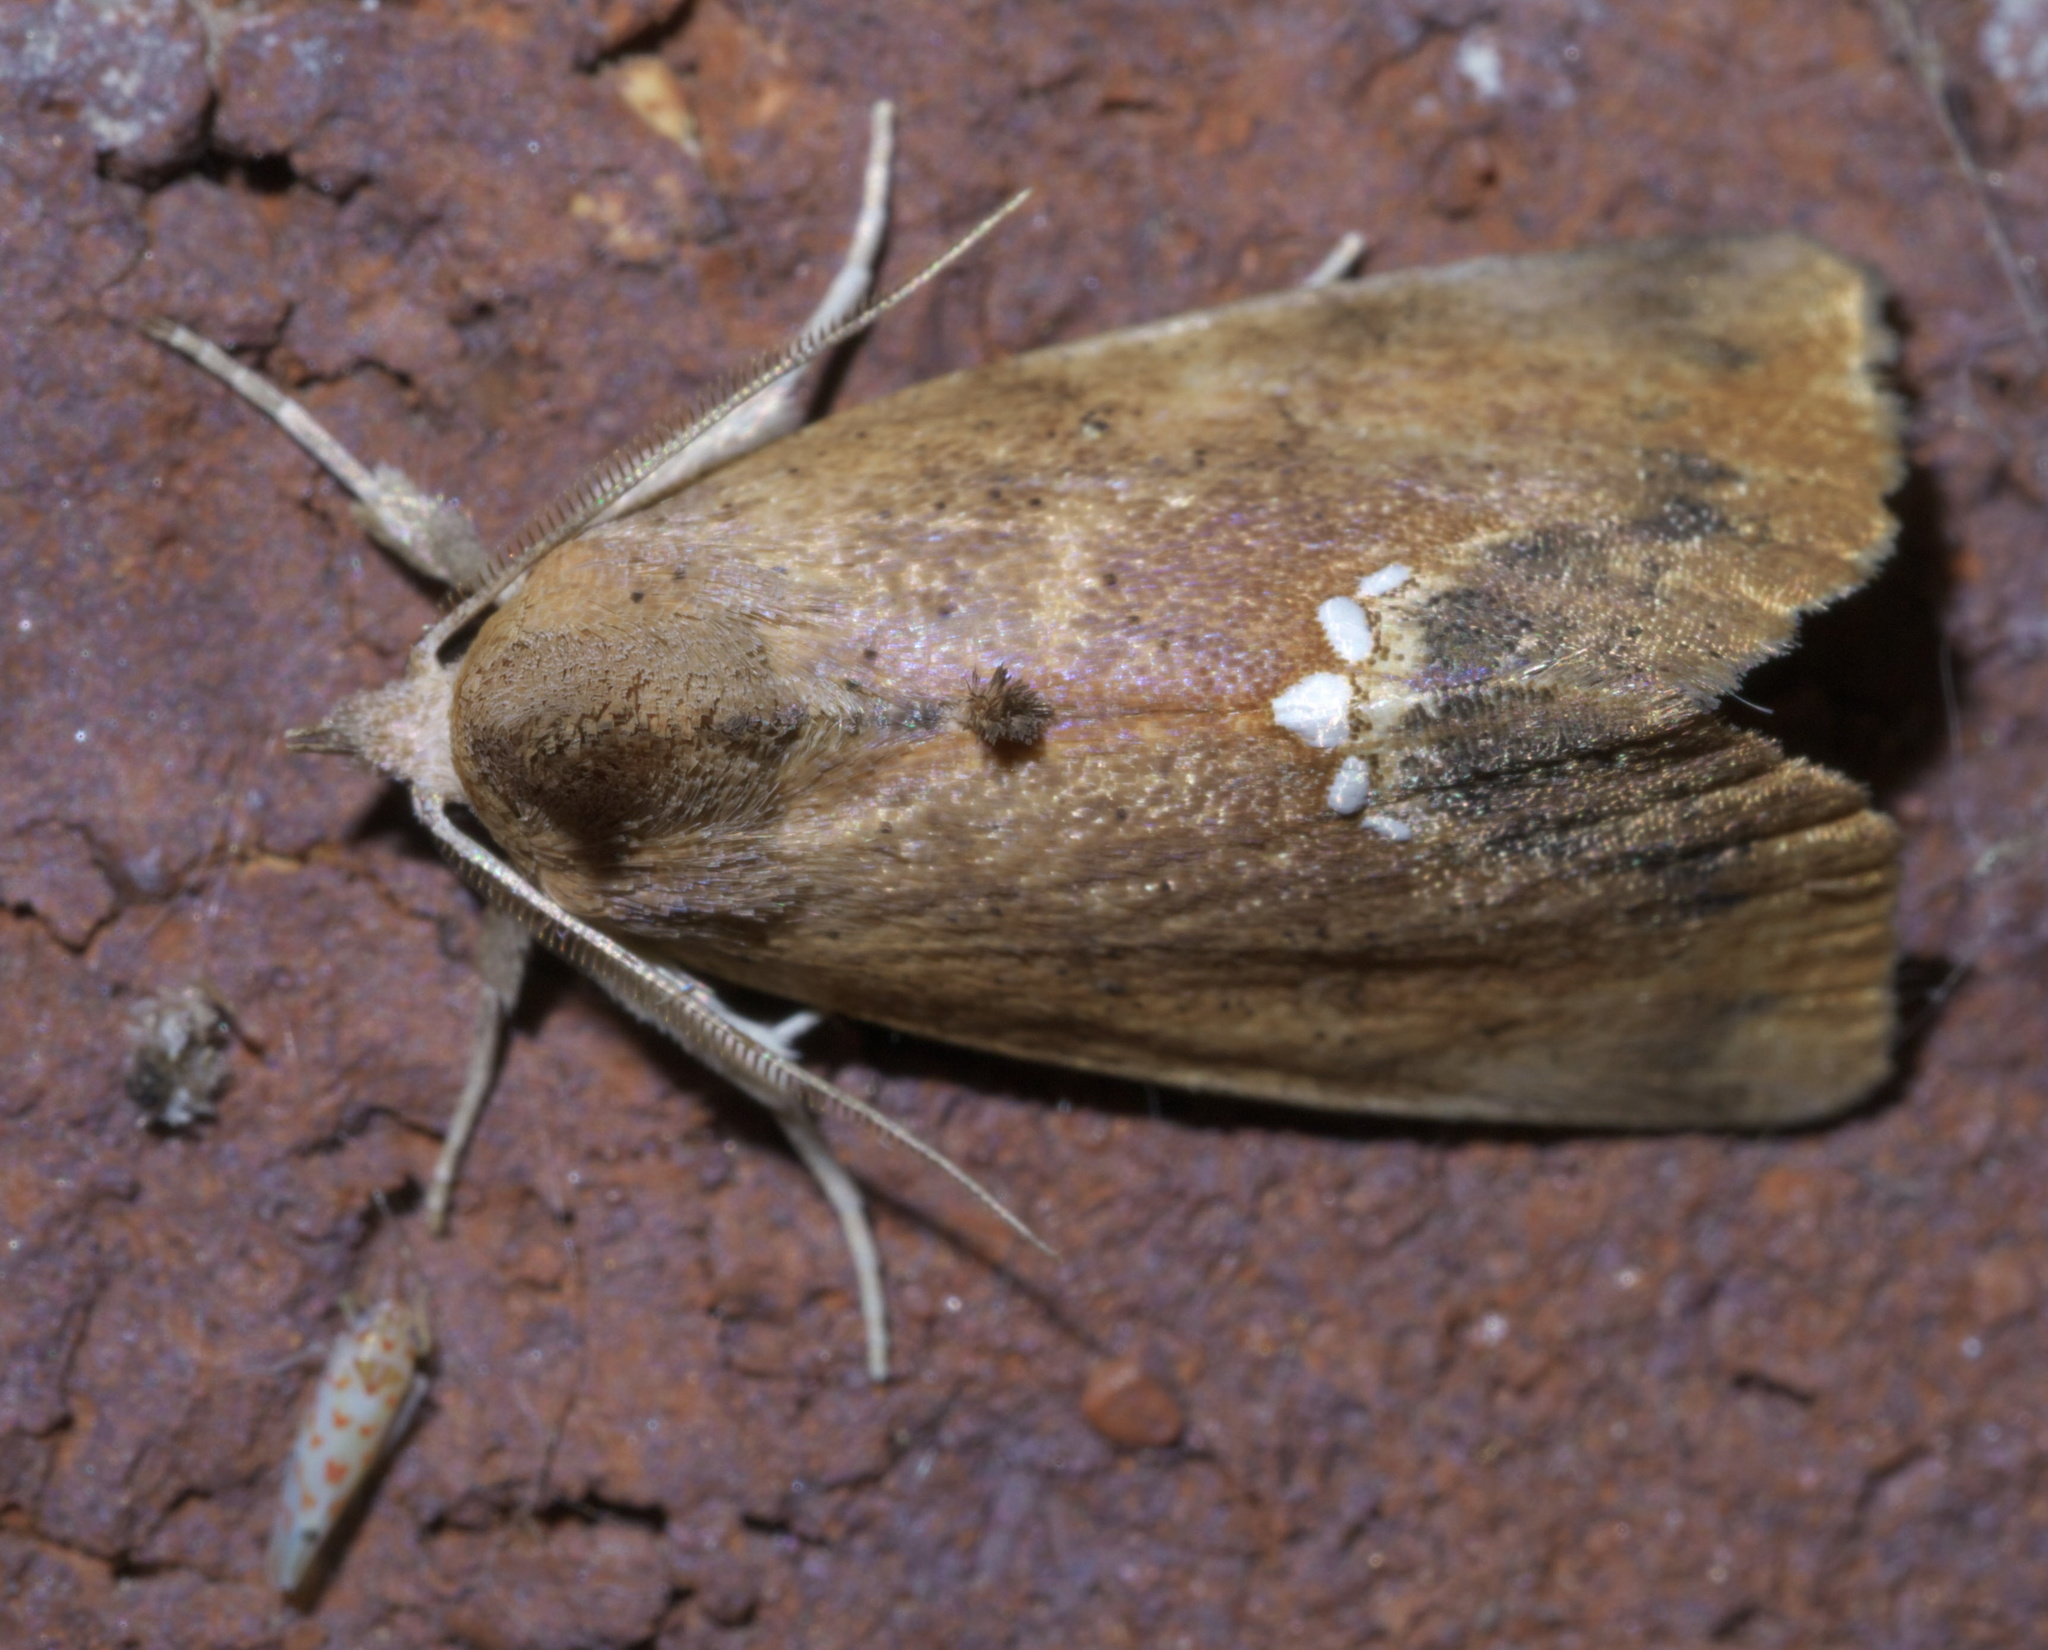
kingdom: Animalia
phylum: Arthropoda
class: Insecta
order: Lepidoptera
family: Erebidae
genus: Hypsoropha
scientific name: Hypsoropha hormos
